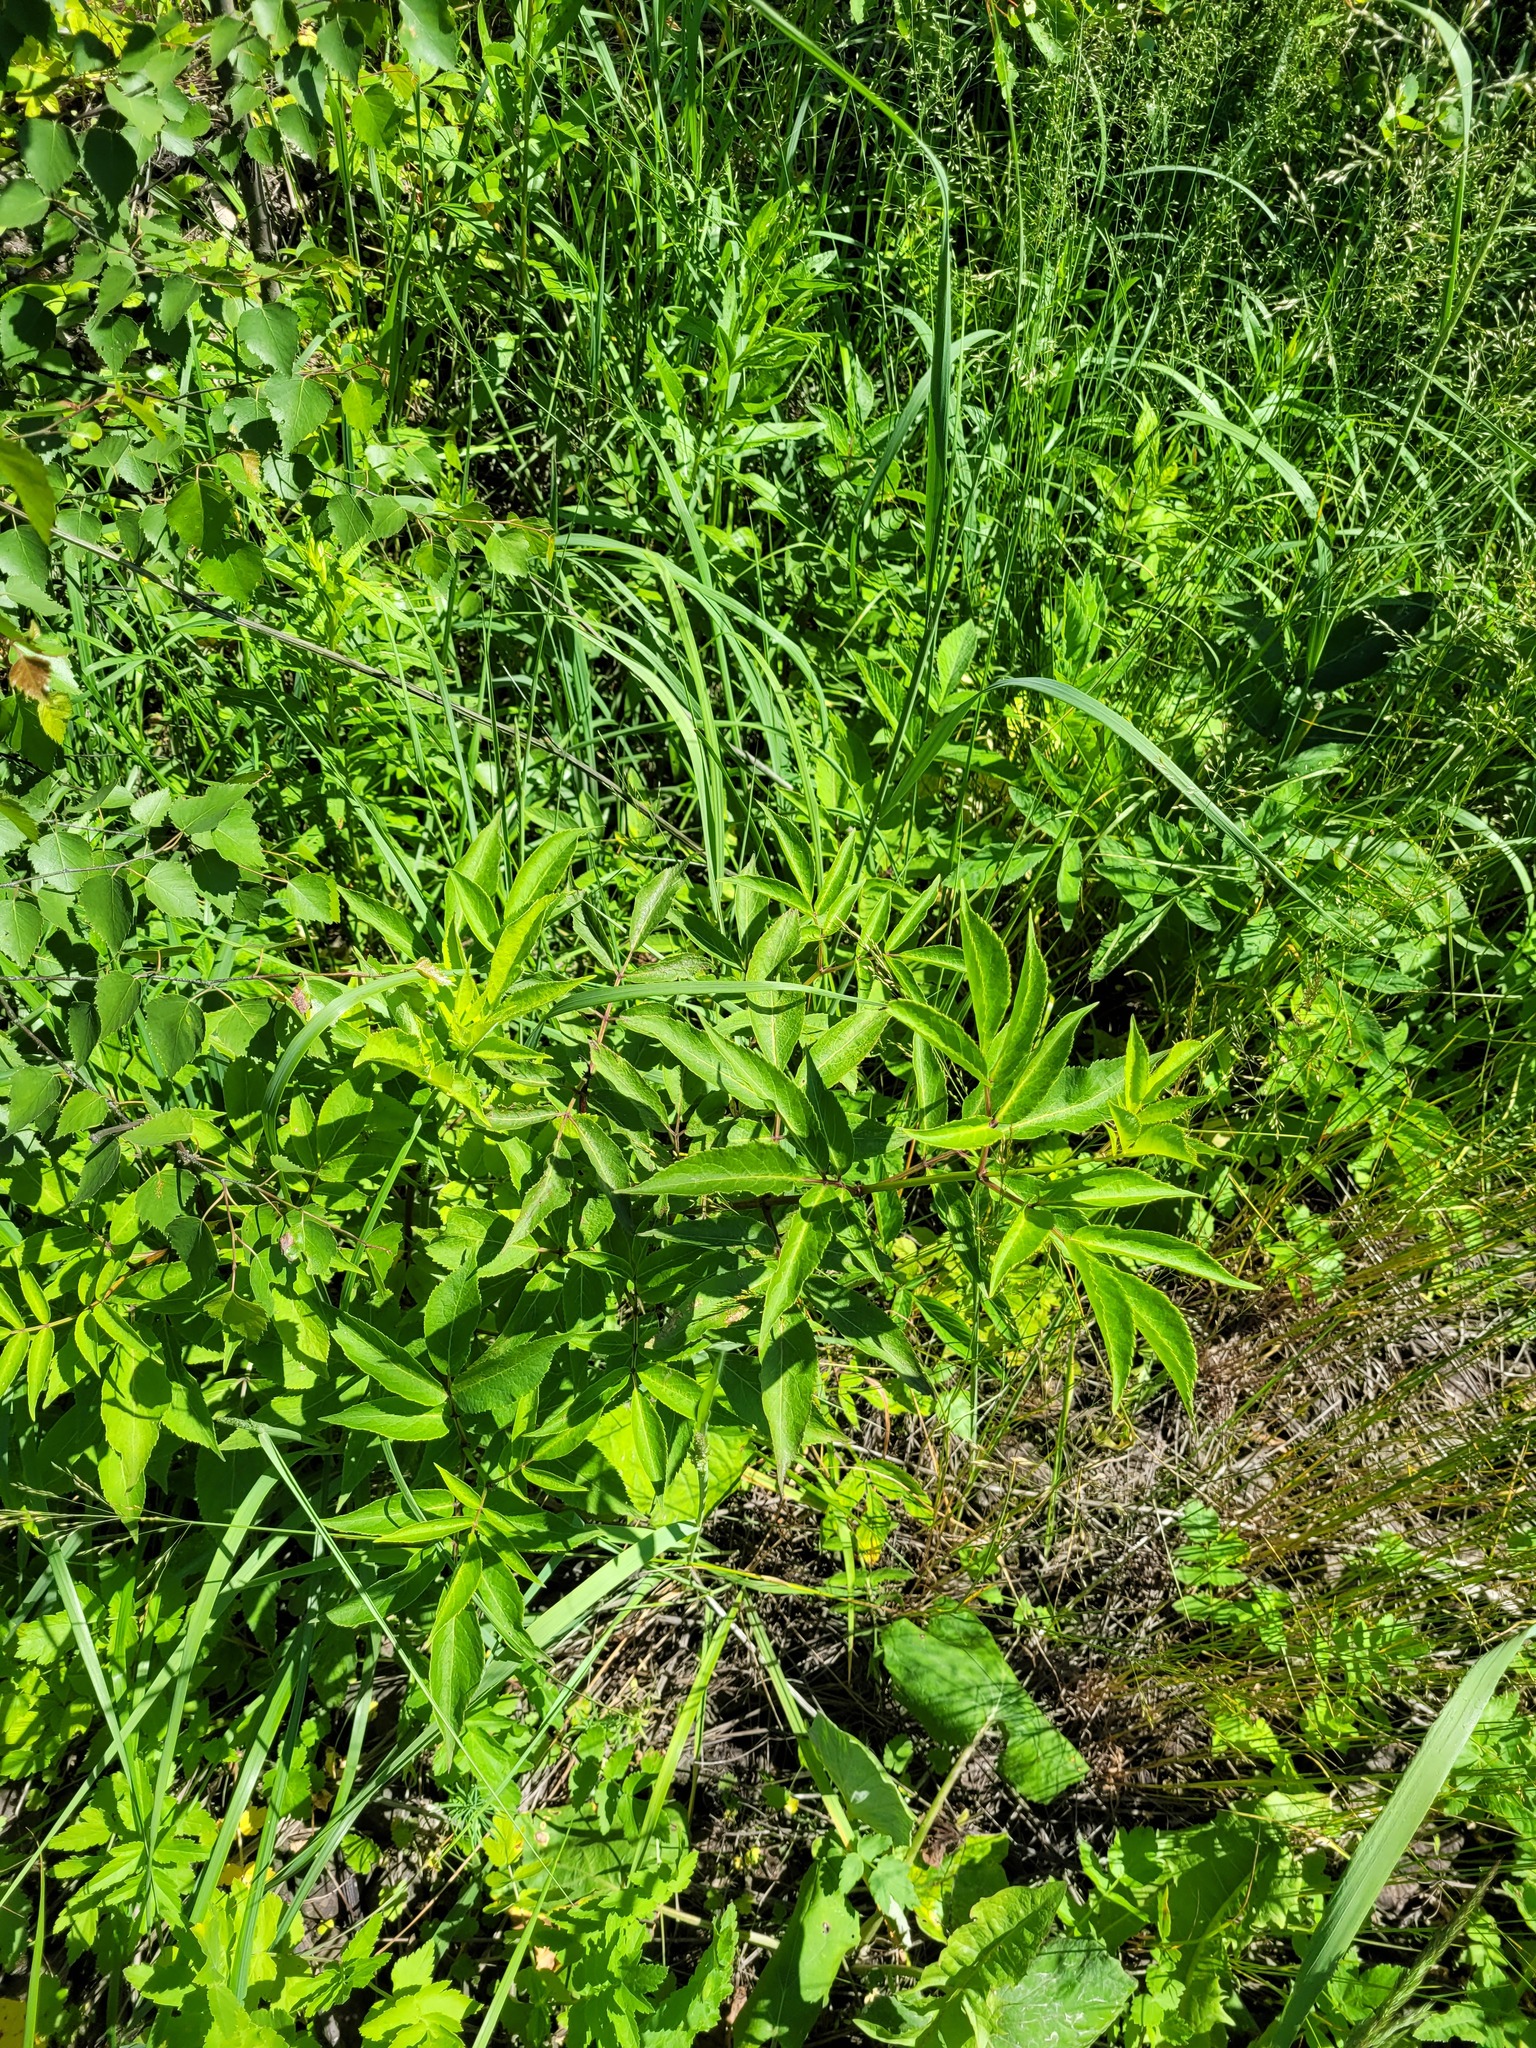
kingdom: Plantae
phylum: Tracheophyta
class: Magnoliopsida
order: Dipsacales
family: Viburnaceae
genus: Sambucus
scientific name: Sambucus racemosa
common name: Red-berried elder
